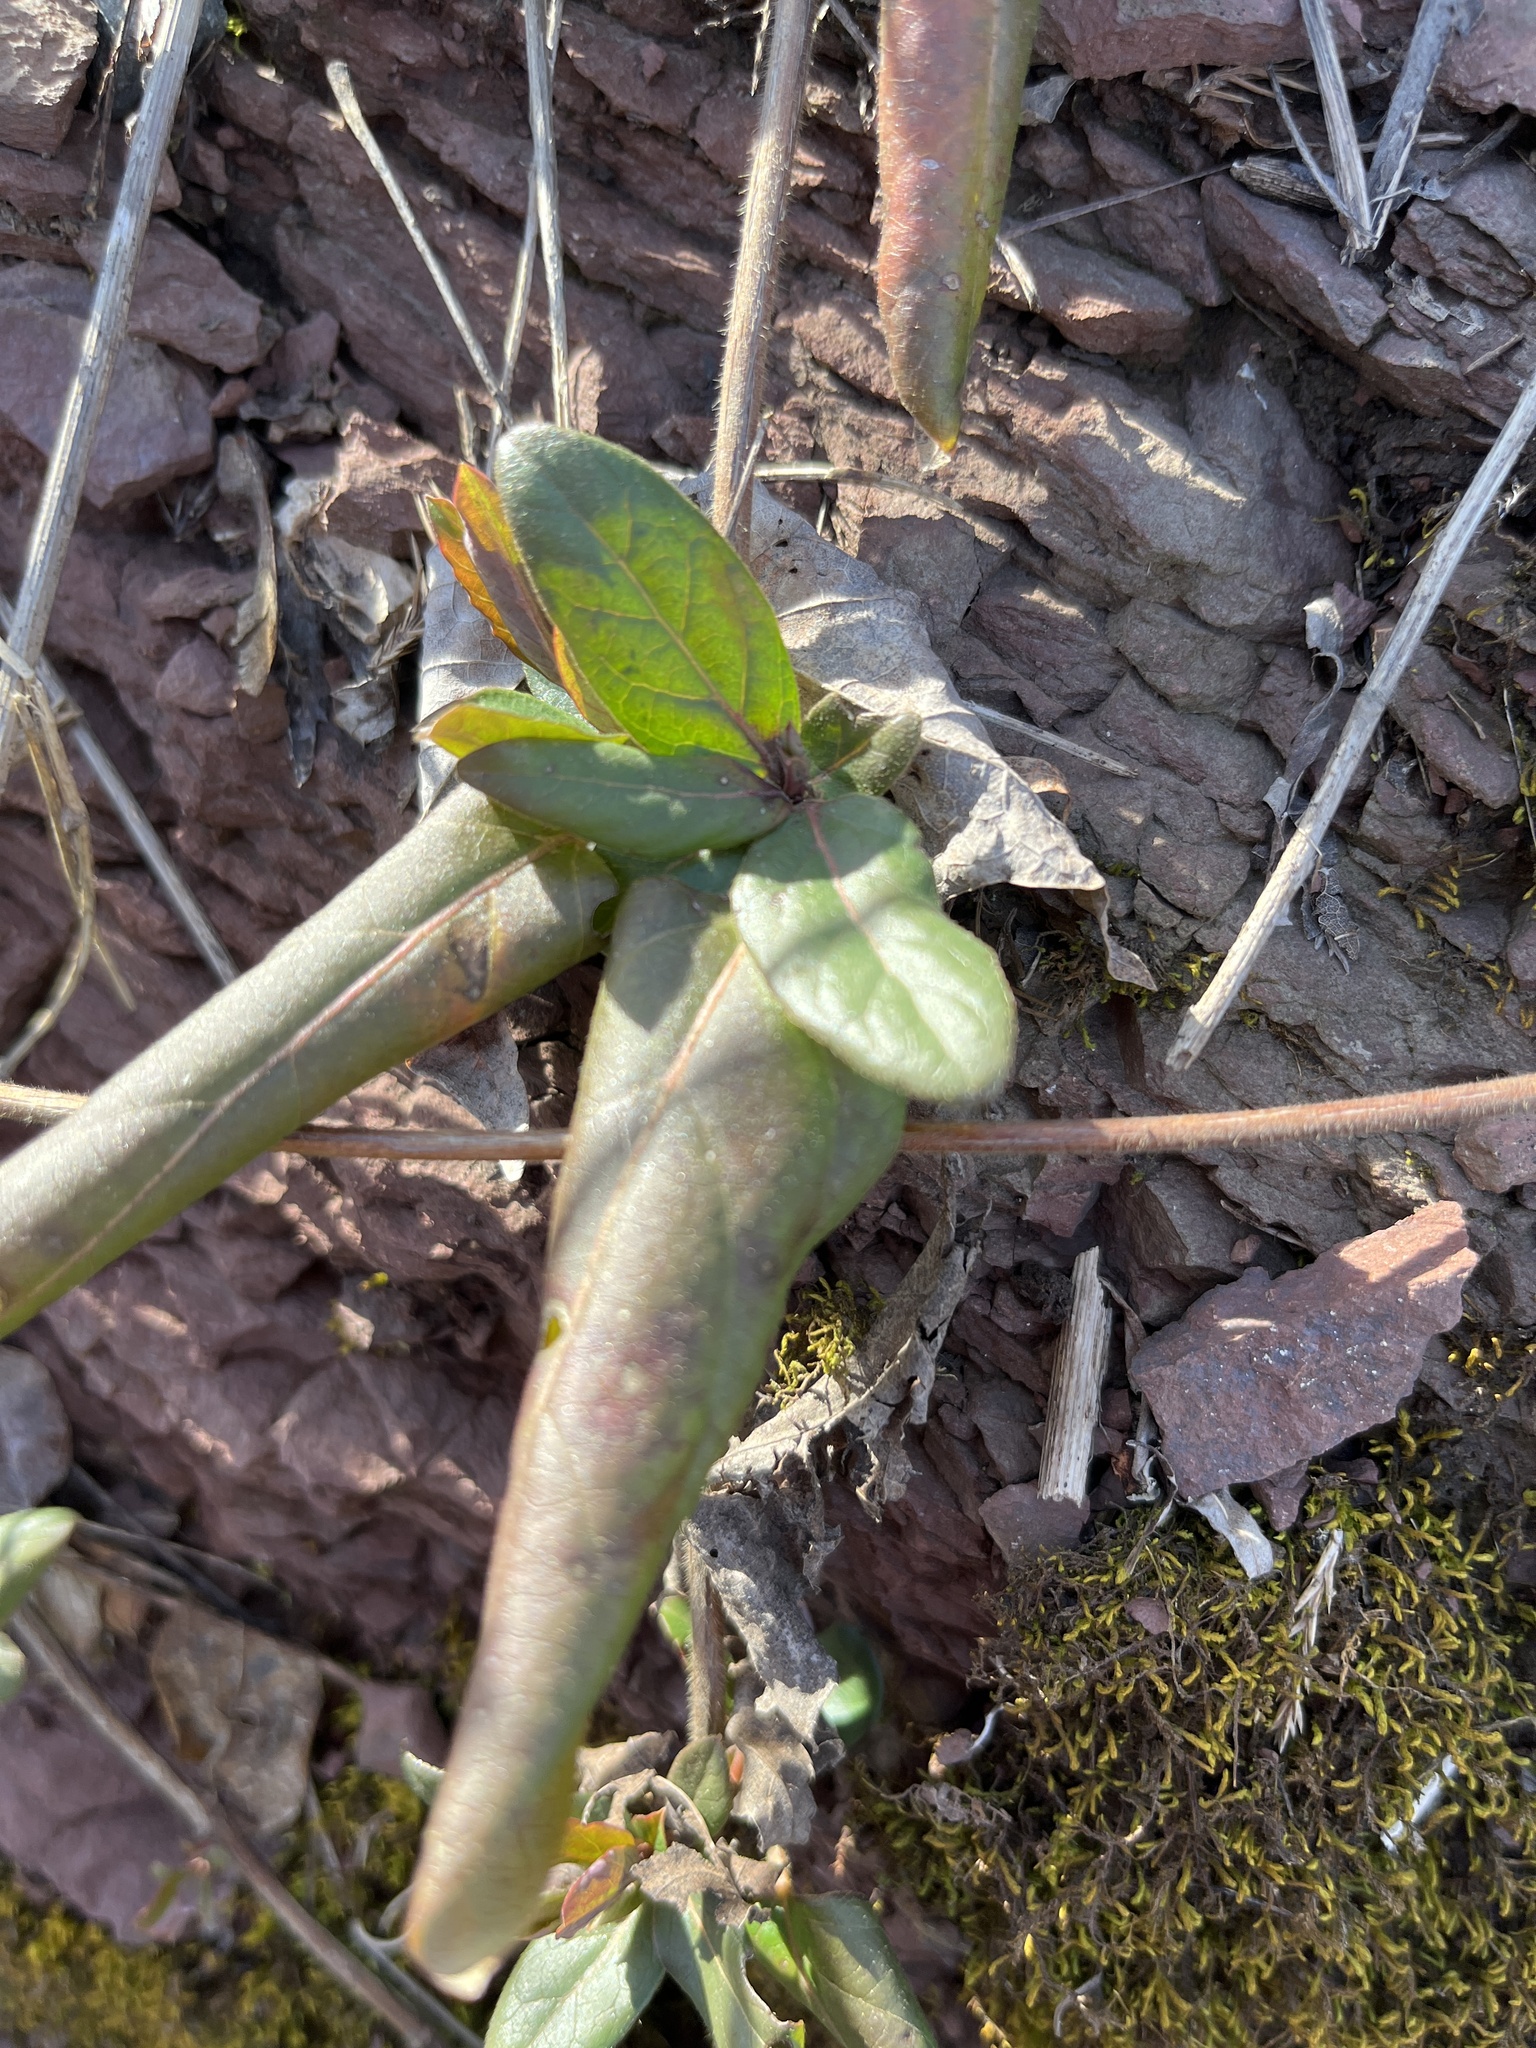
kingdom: Plantae
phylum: Tracheophyta
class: Magnoliopsida
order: Dipsacales
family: Caprifoliaceae
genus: Lonicera
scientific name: Lonicera japonica
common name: Japanese honeysuckle
